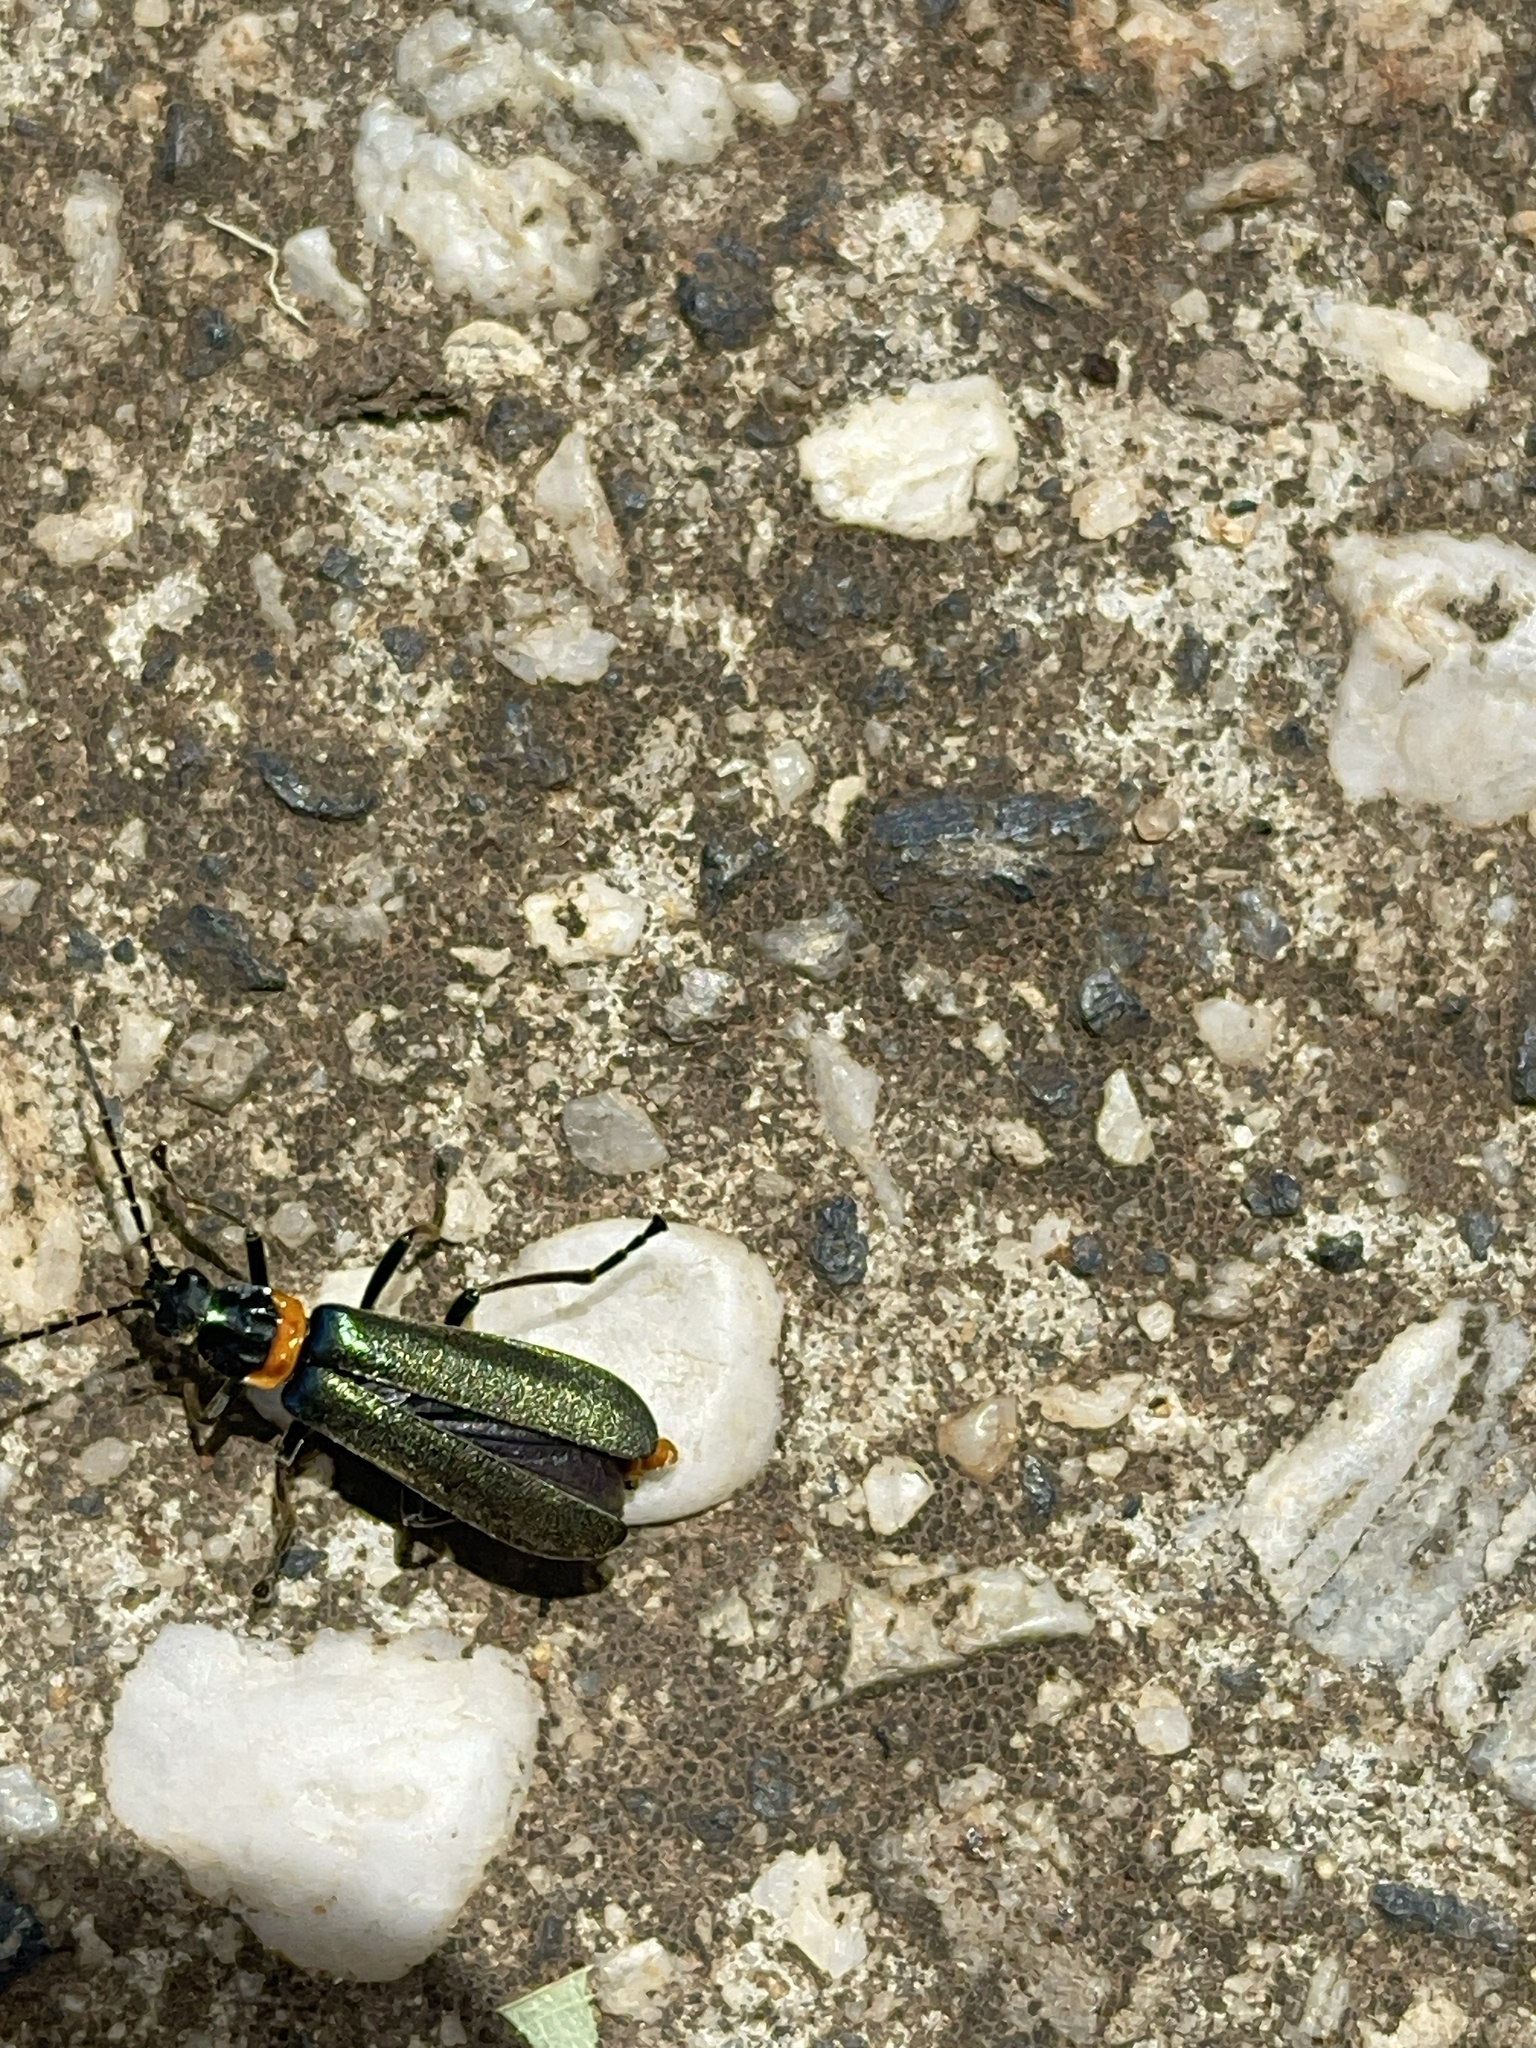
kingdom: Animalia
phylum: Arthropoda
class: Insecta
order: Coleoptera
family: Cantharidae
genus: Chauliognathus
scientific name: Chauliognathus
